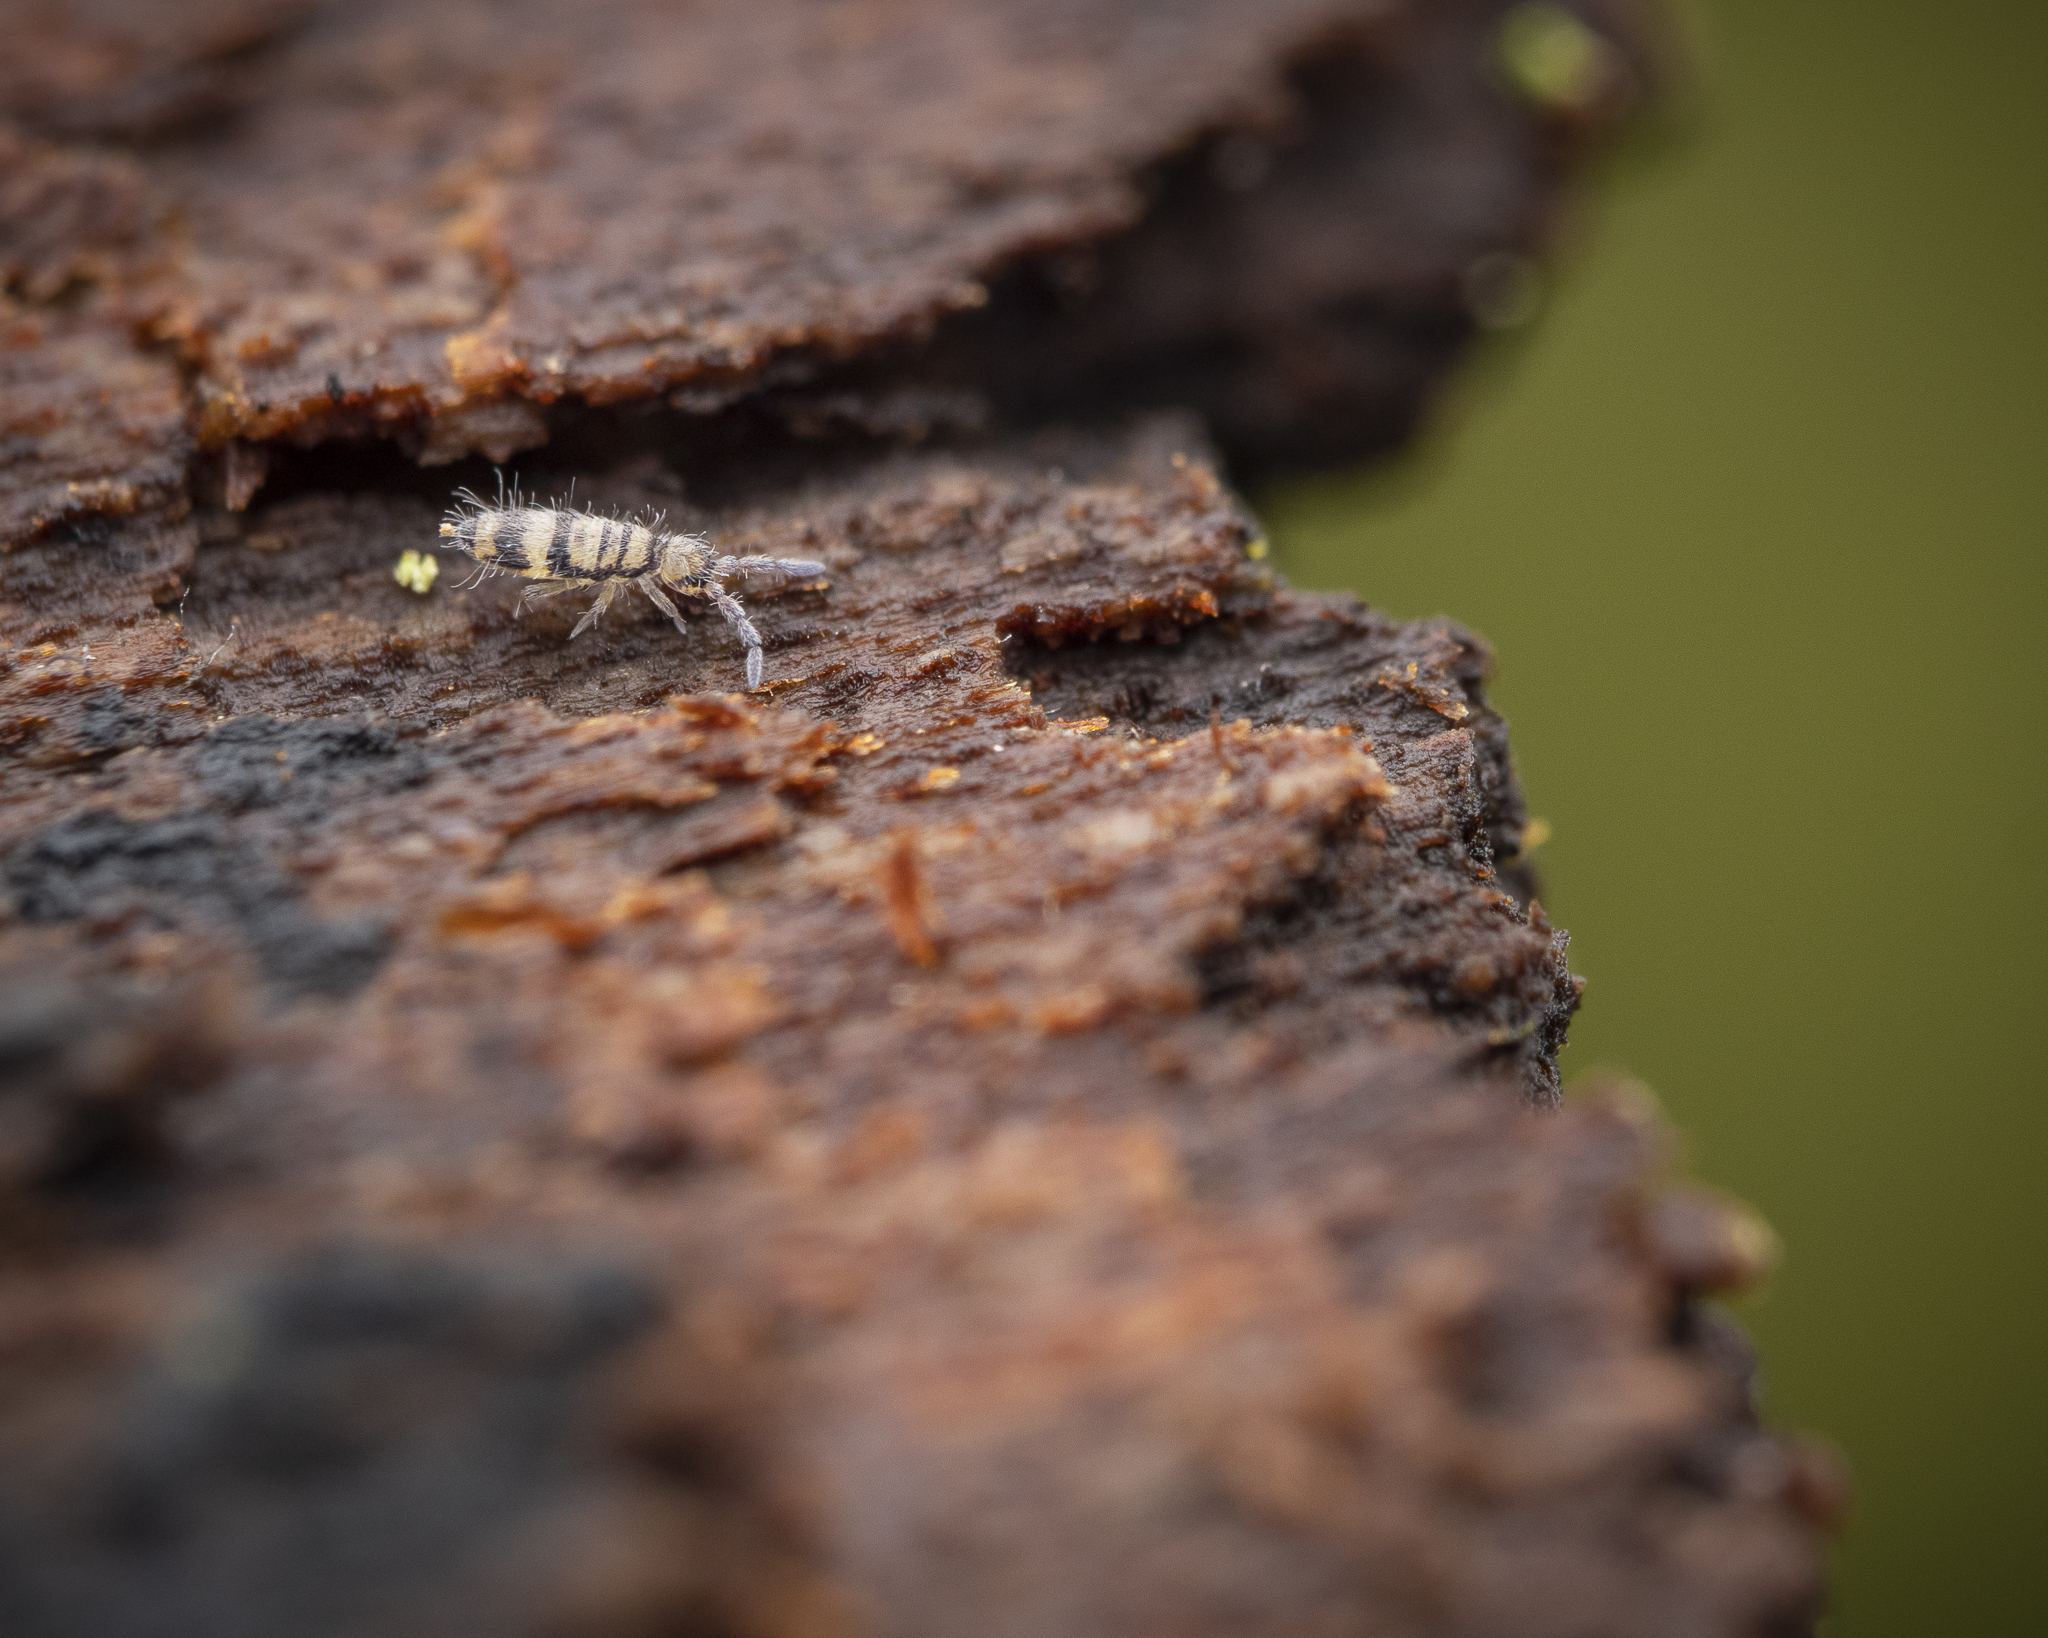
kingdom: Animalia
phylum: Arthropoda
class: Collembola
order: Entomobryomorpha
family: Entomobryidae
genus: Entomobrya
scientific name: Entomobrya corticalis
